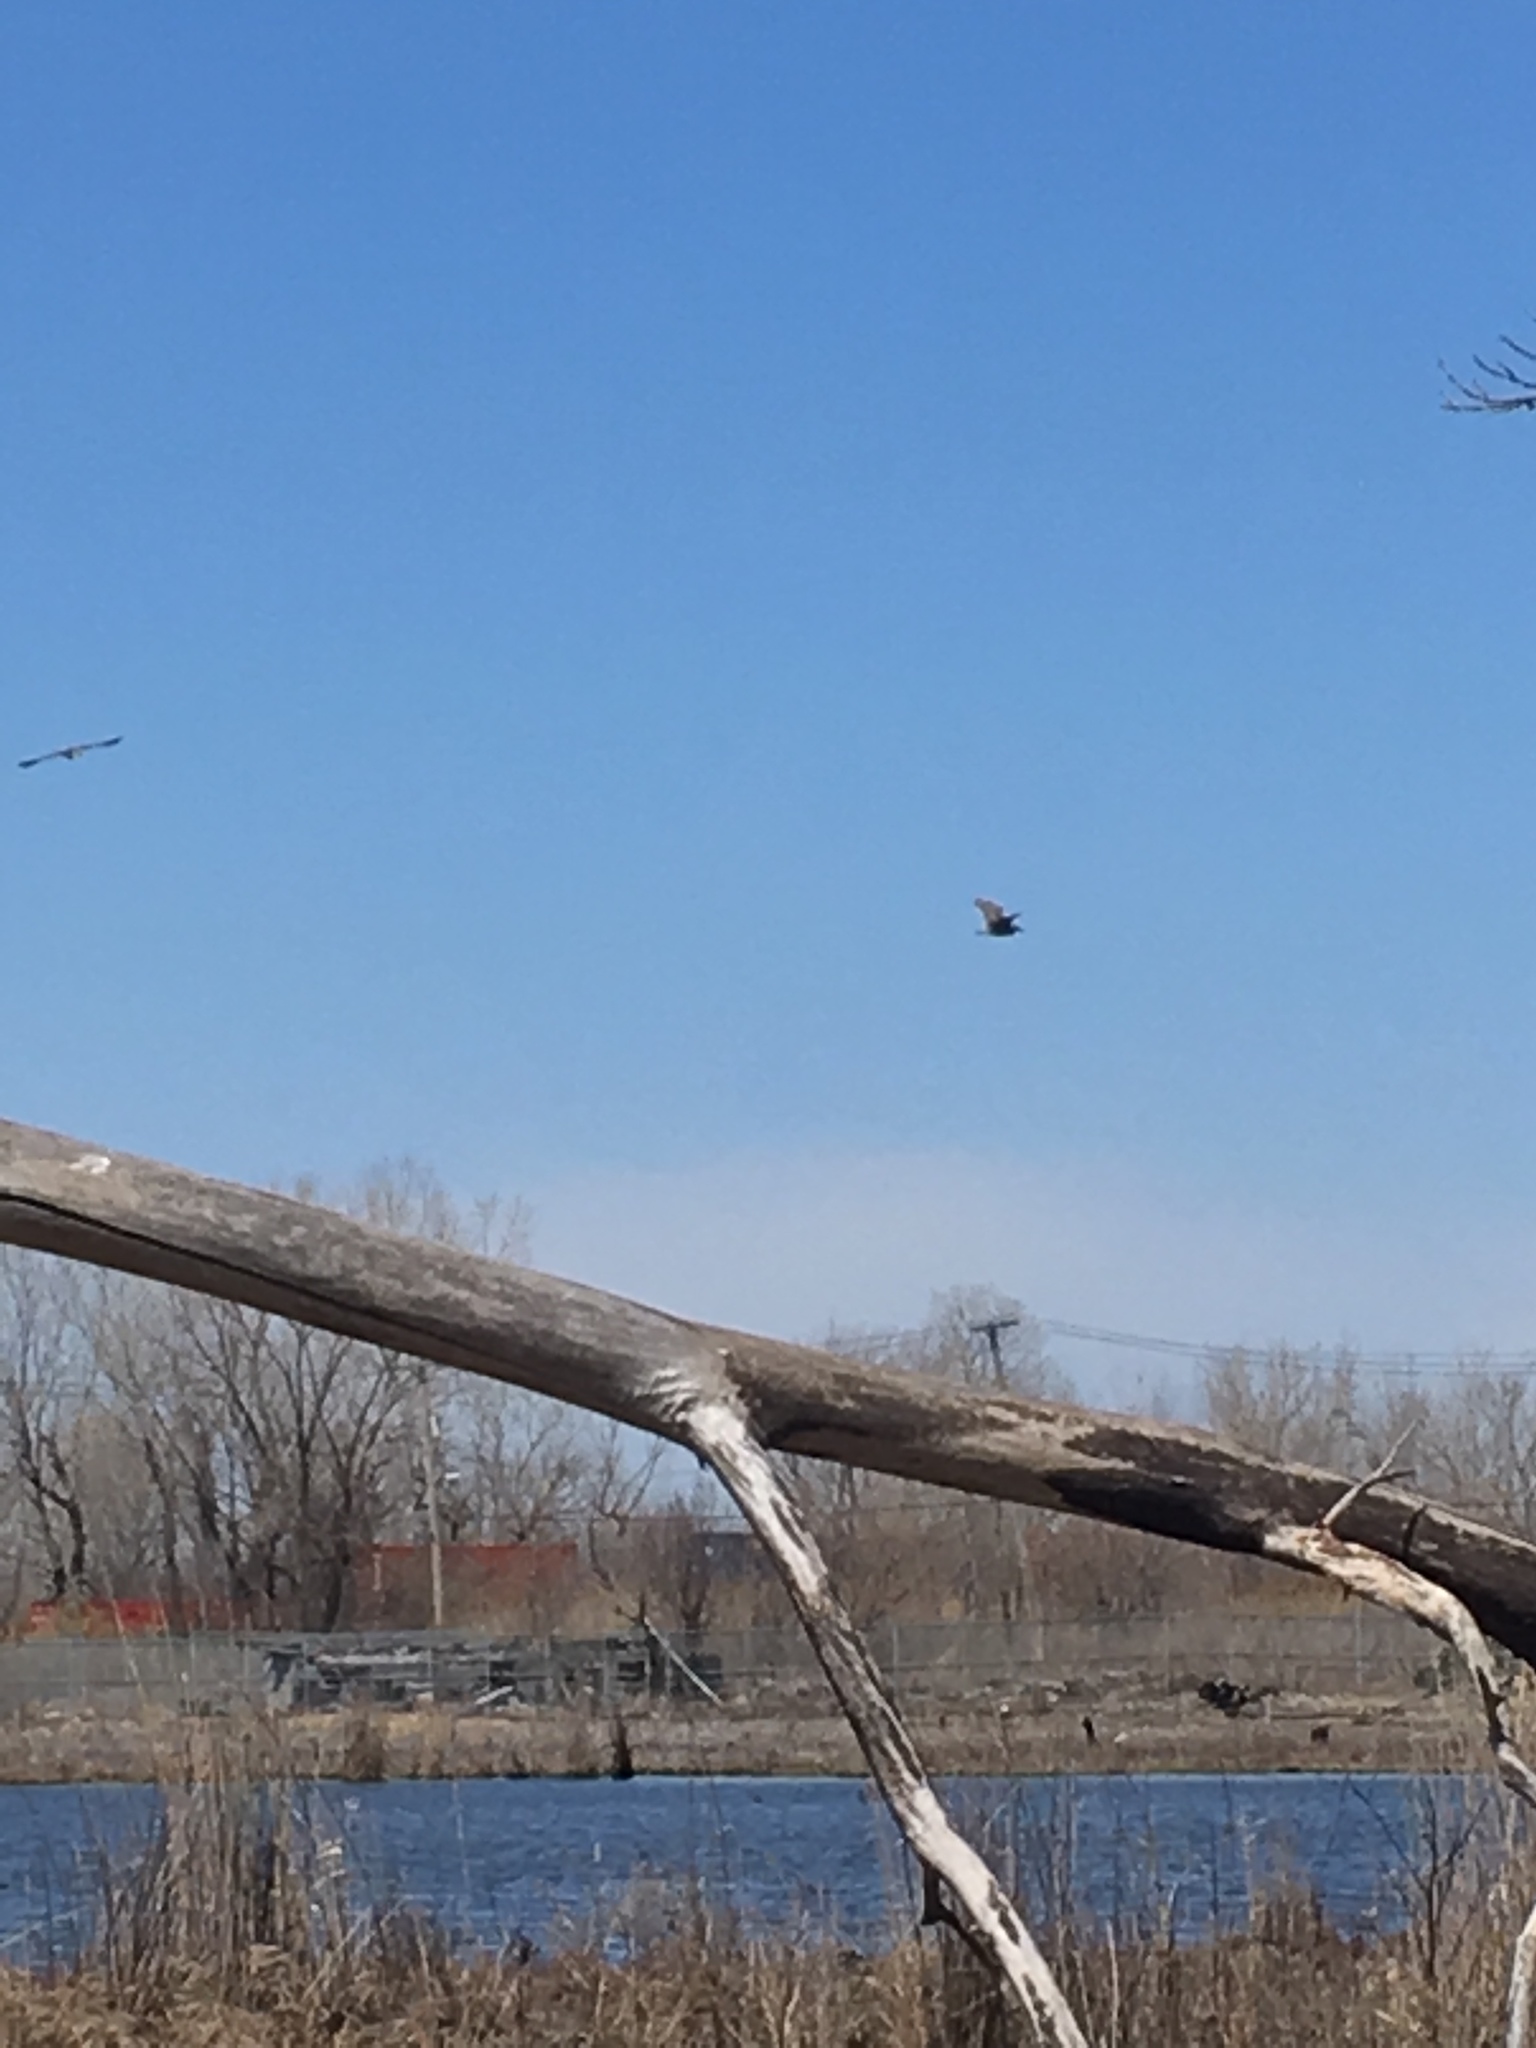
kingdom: Animalia
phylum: Chordata
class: Aves
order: Pelecaniformes
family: Ardeidae
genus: Nycticorax
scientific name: Nycticorax nycticorax
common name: Black-crowned night heron
